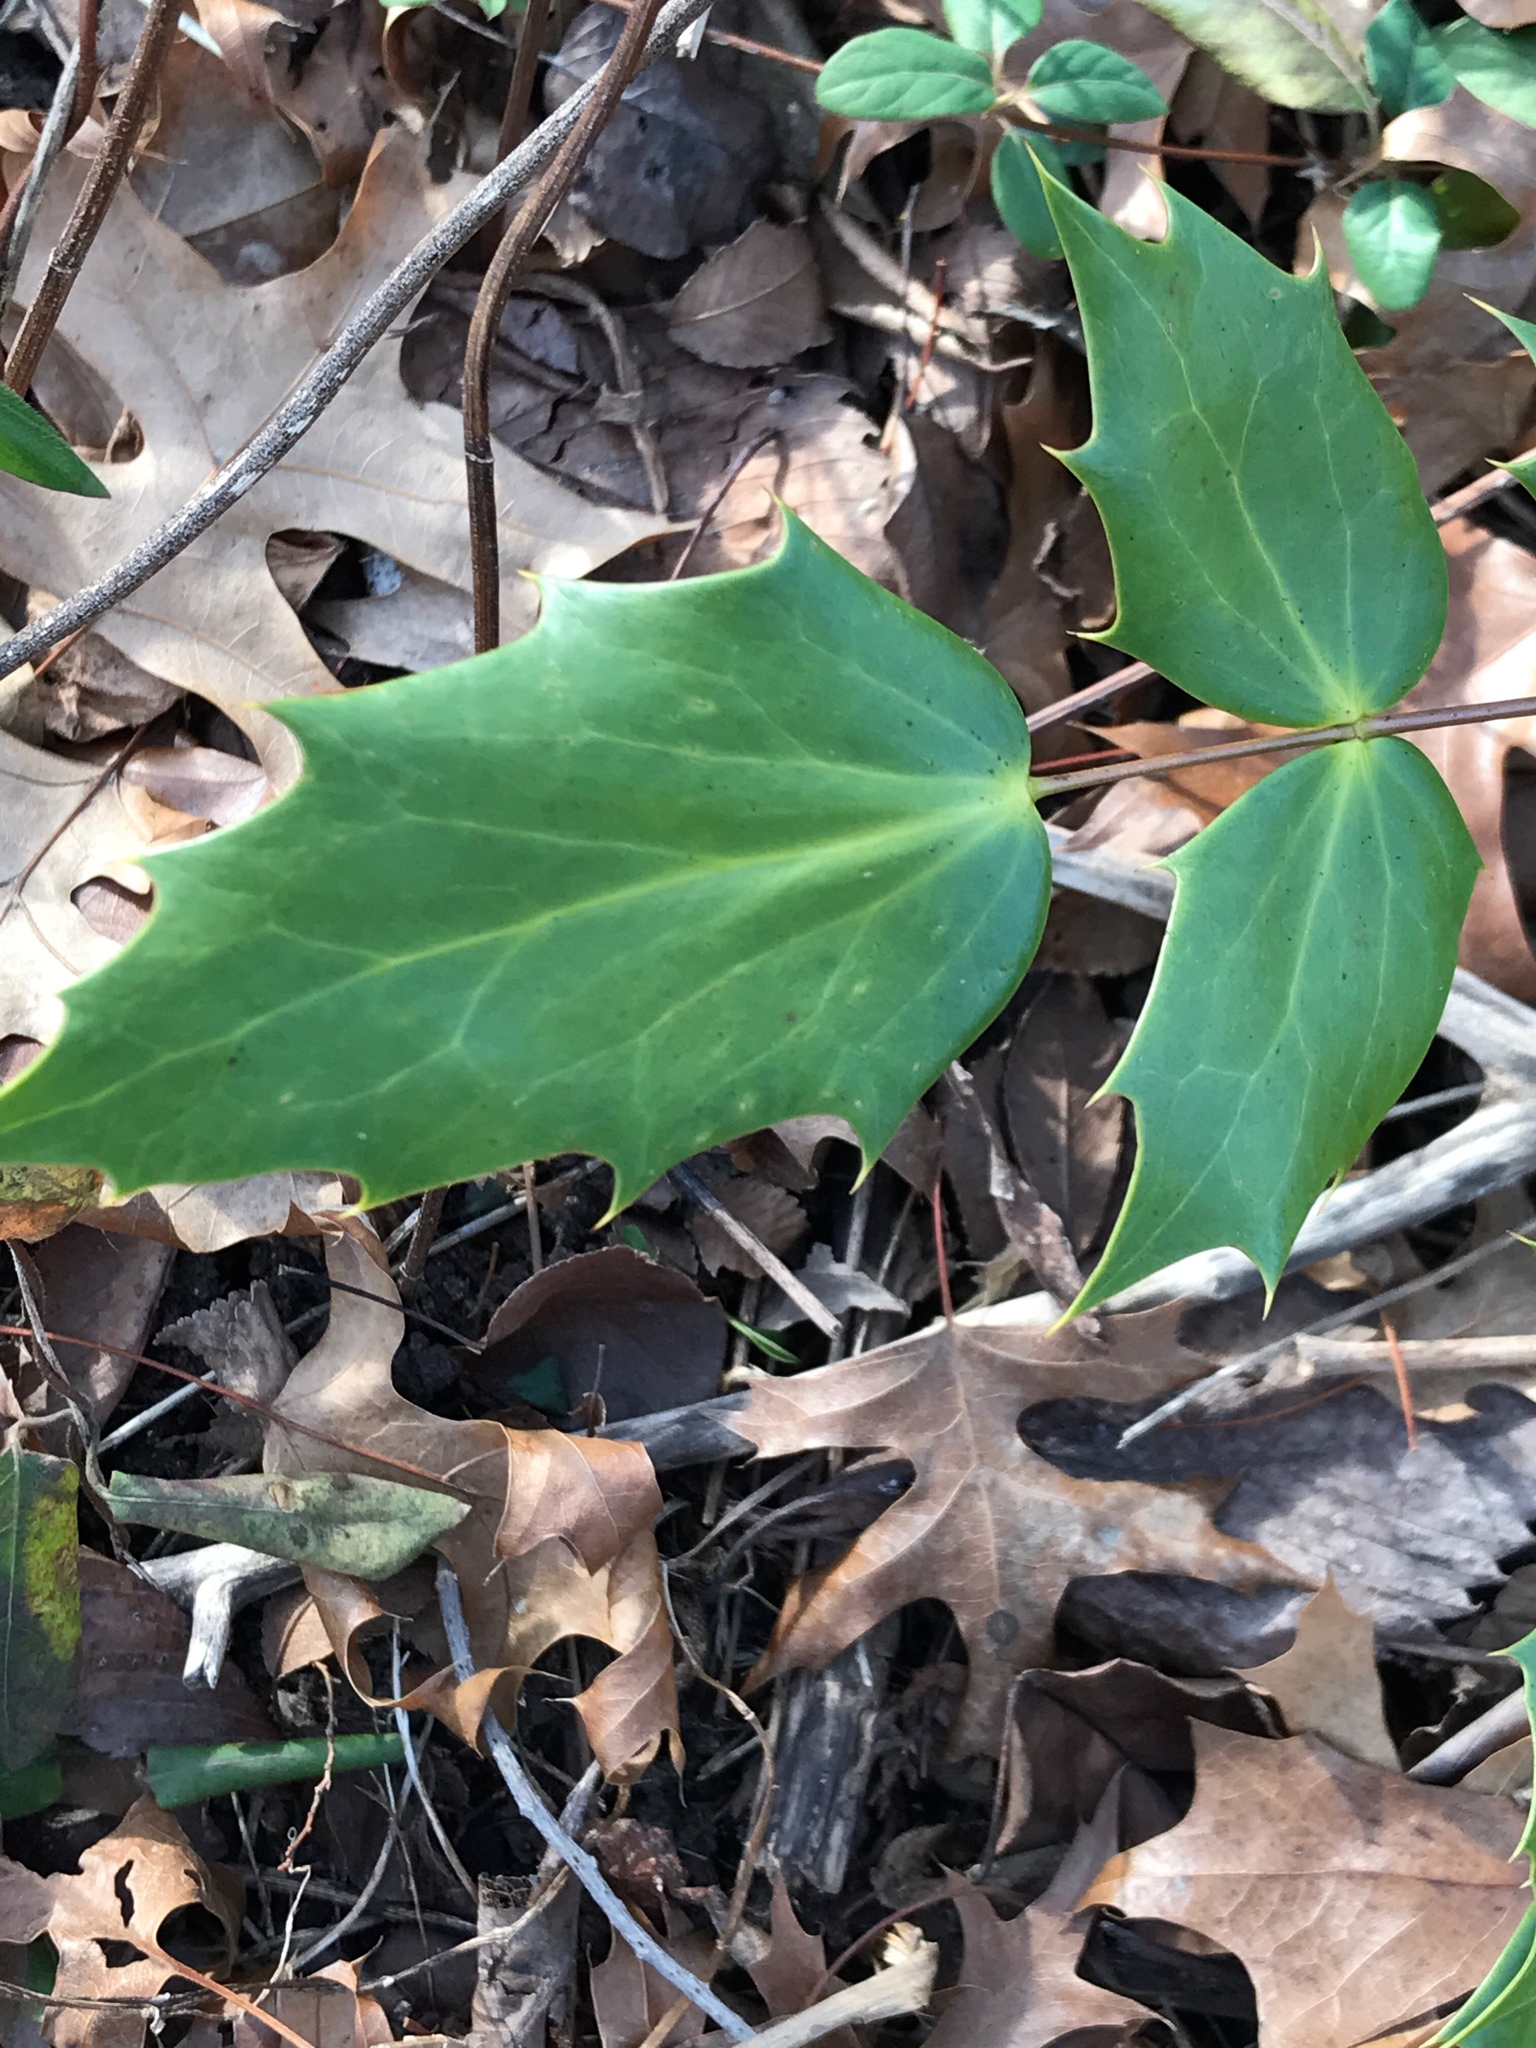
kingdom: Plantae
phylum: Tracheophyta
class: Magnoliopsida
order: Ranunculales
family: Berberidaceae
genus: Mahonia
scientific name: Mahonia bealei
